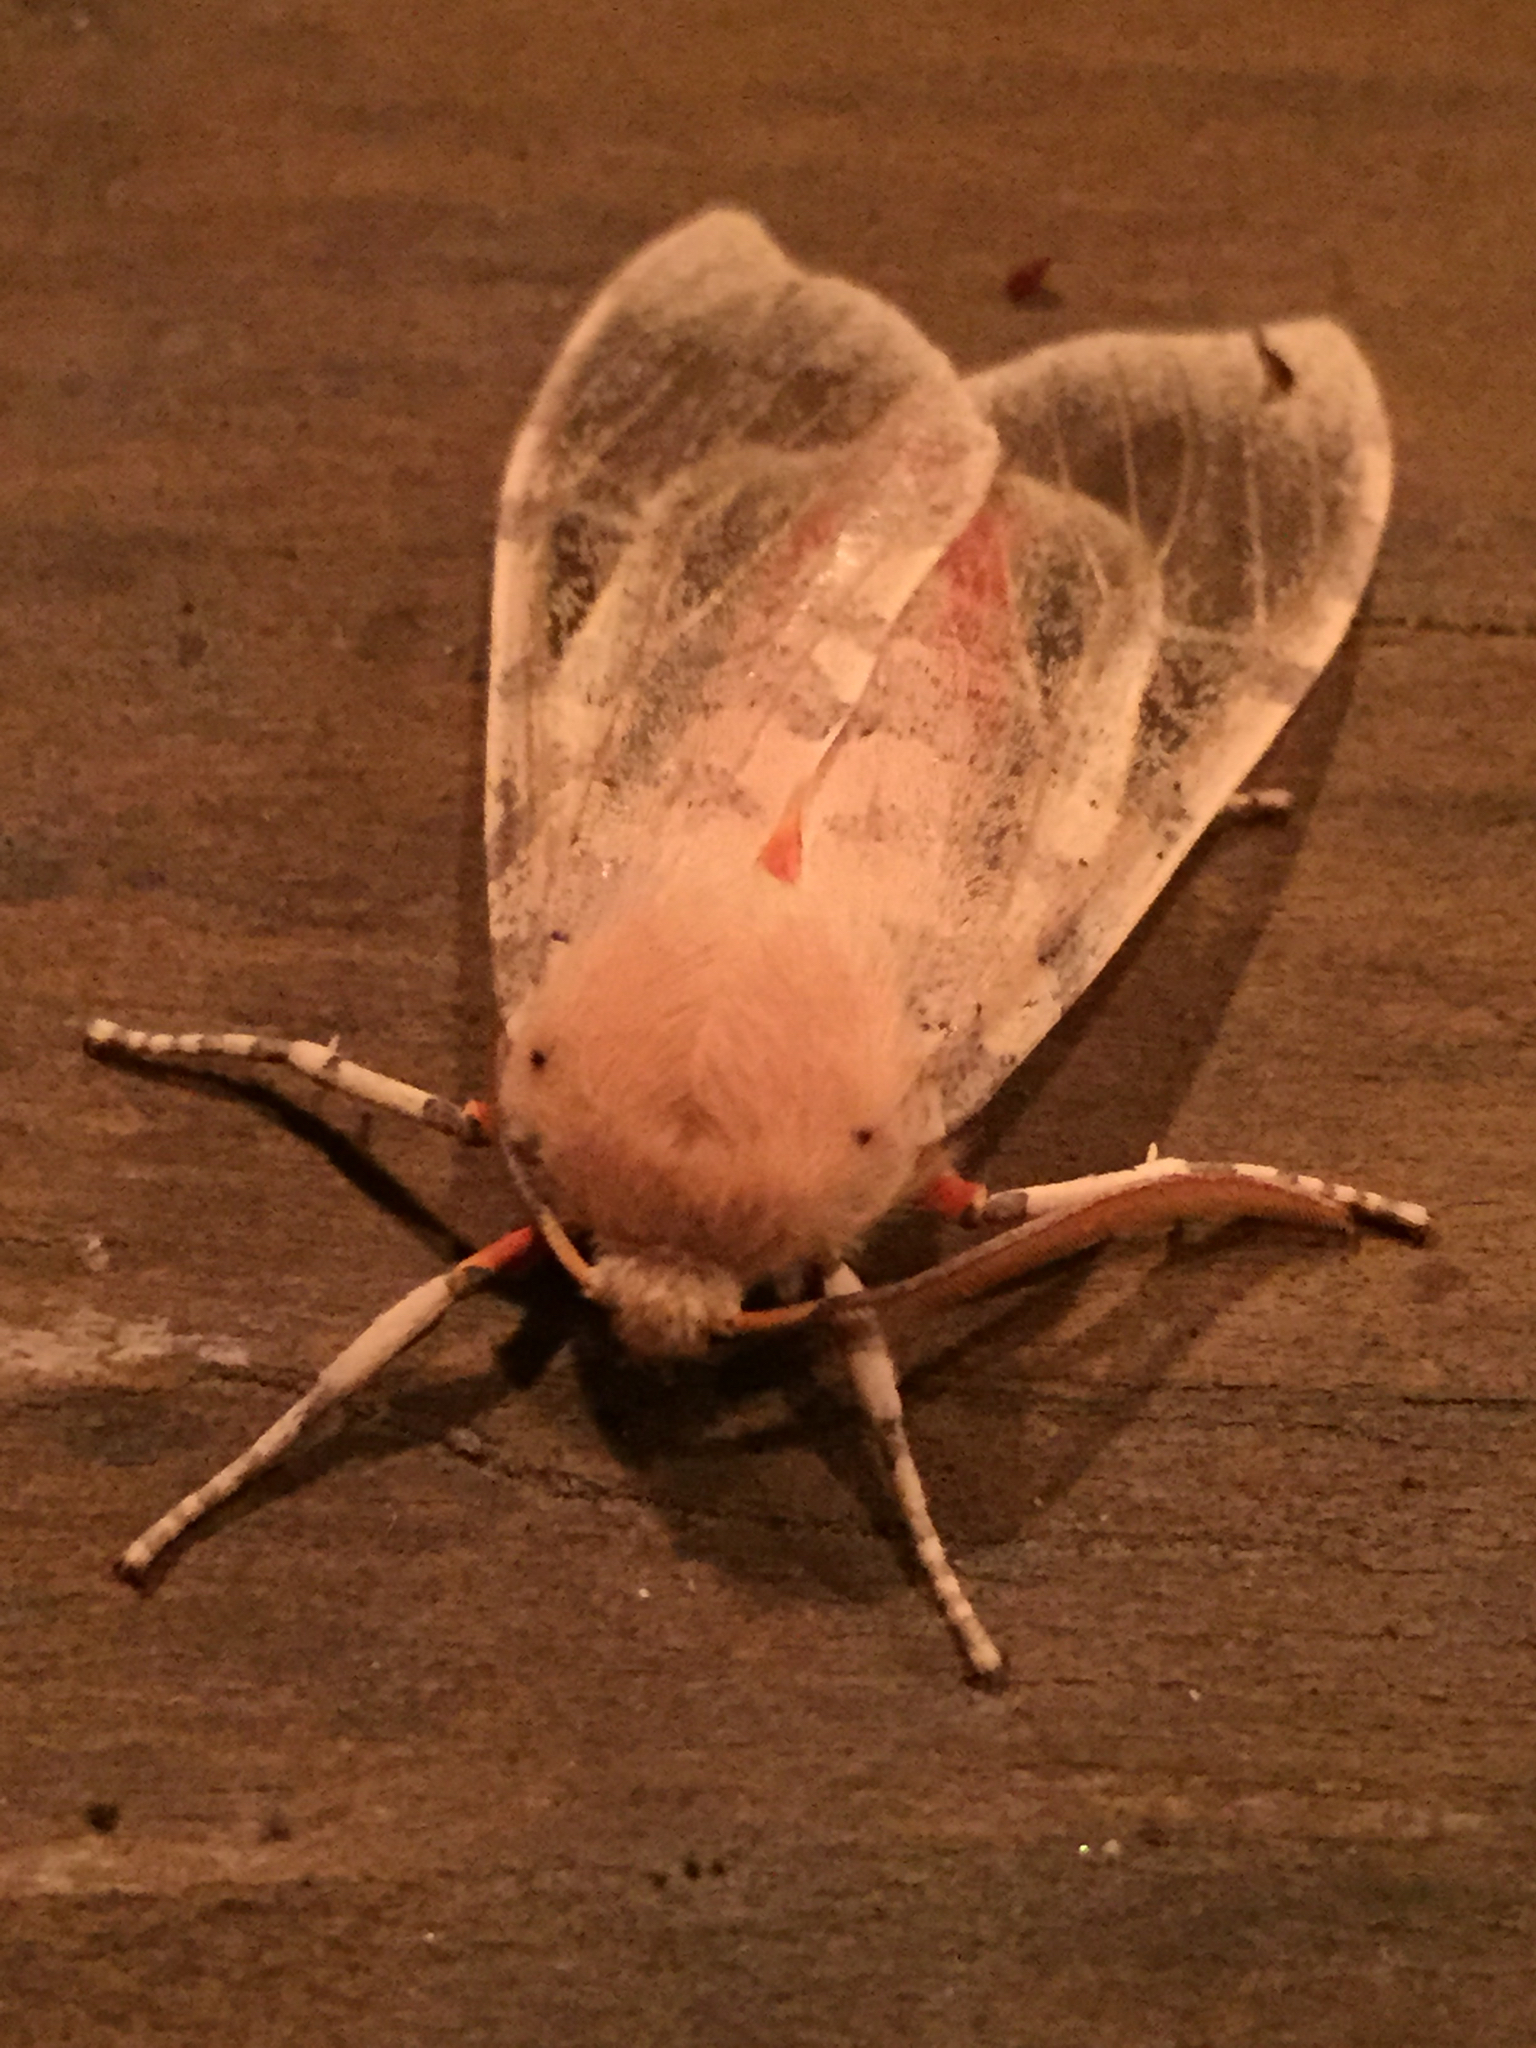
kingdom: Animalia
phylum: Arthropoda
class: Insecta
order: Lepidoptera
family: Erebidae
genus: Hemihyalea
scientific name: Hemihyalea edwardsii
